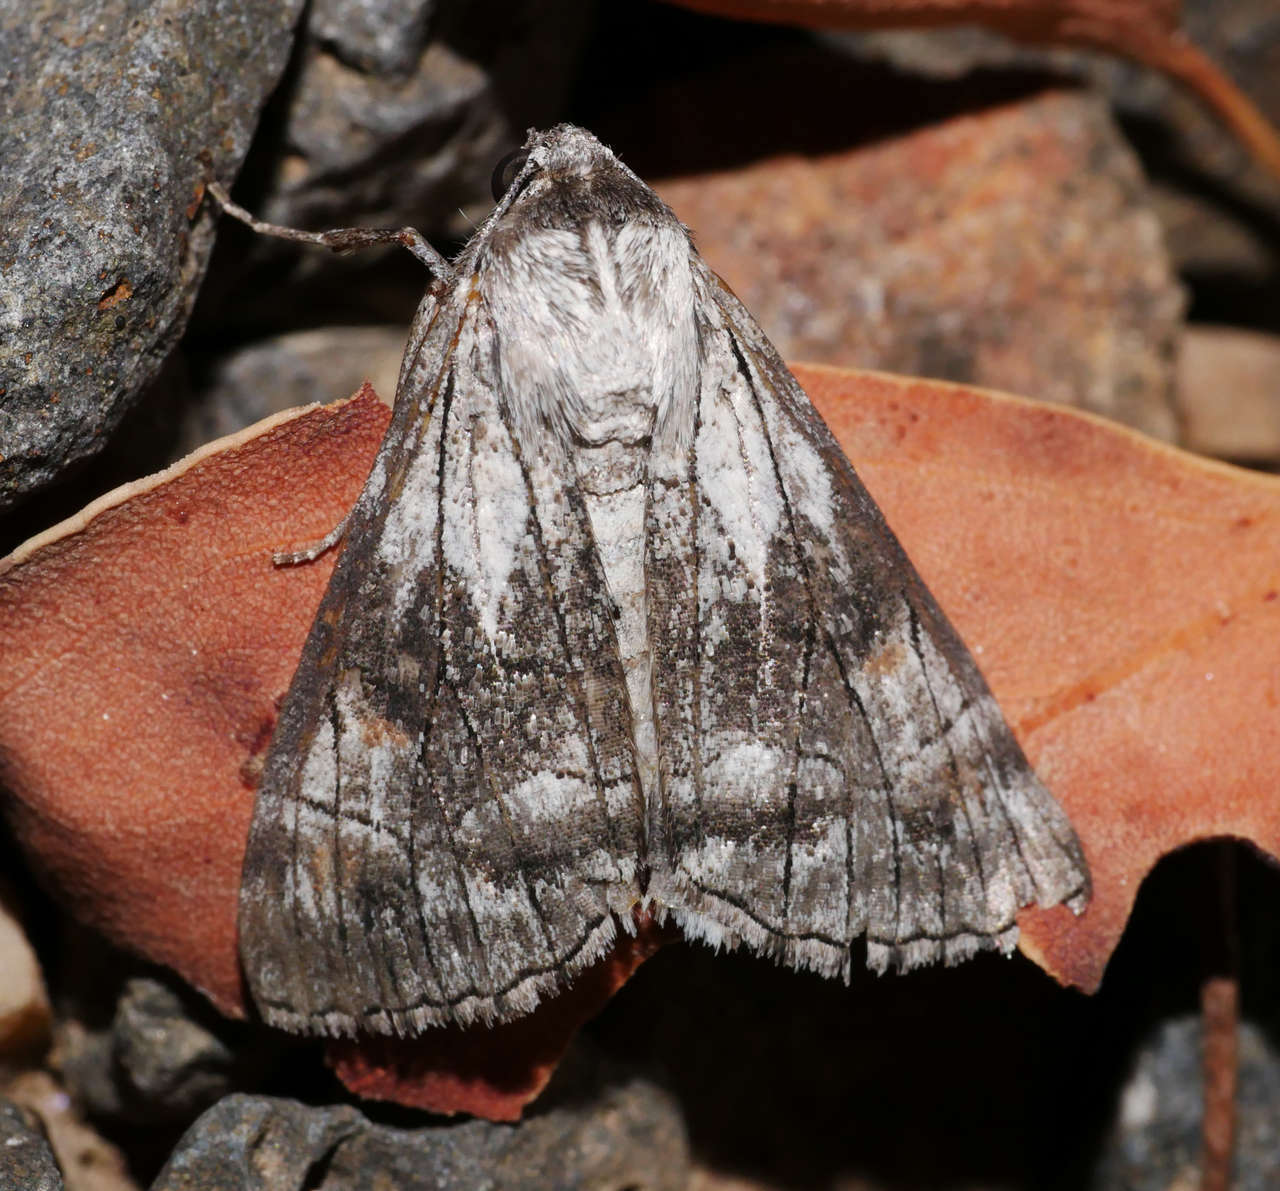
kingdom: Animalia
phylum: Arthropoda
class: Insecta
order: Lepidoptera
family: Geometridae
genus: Stibaractis
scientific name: Stibaractis melanotoxa
